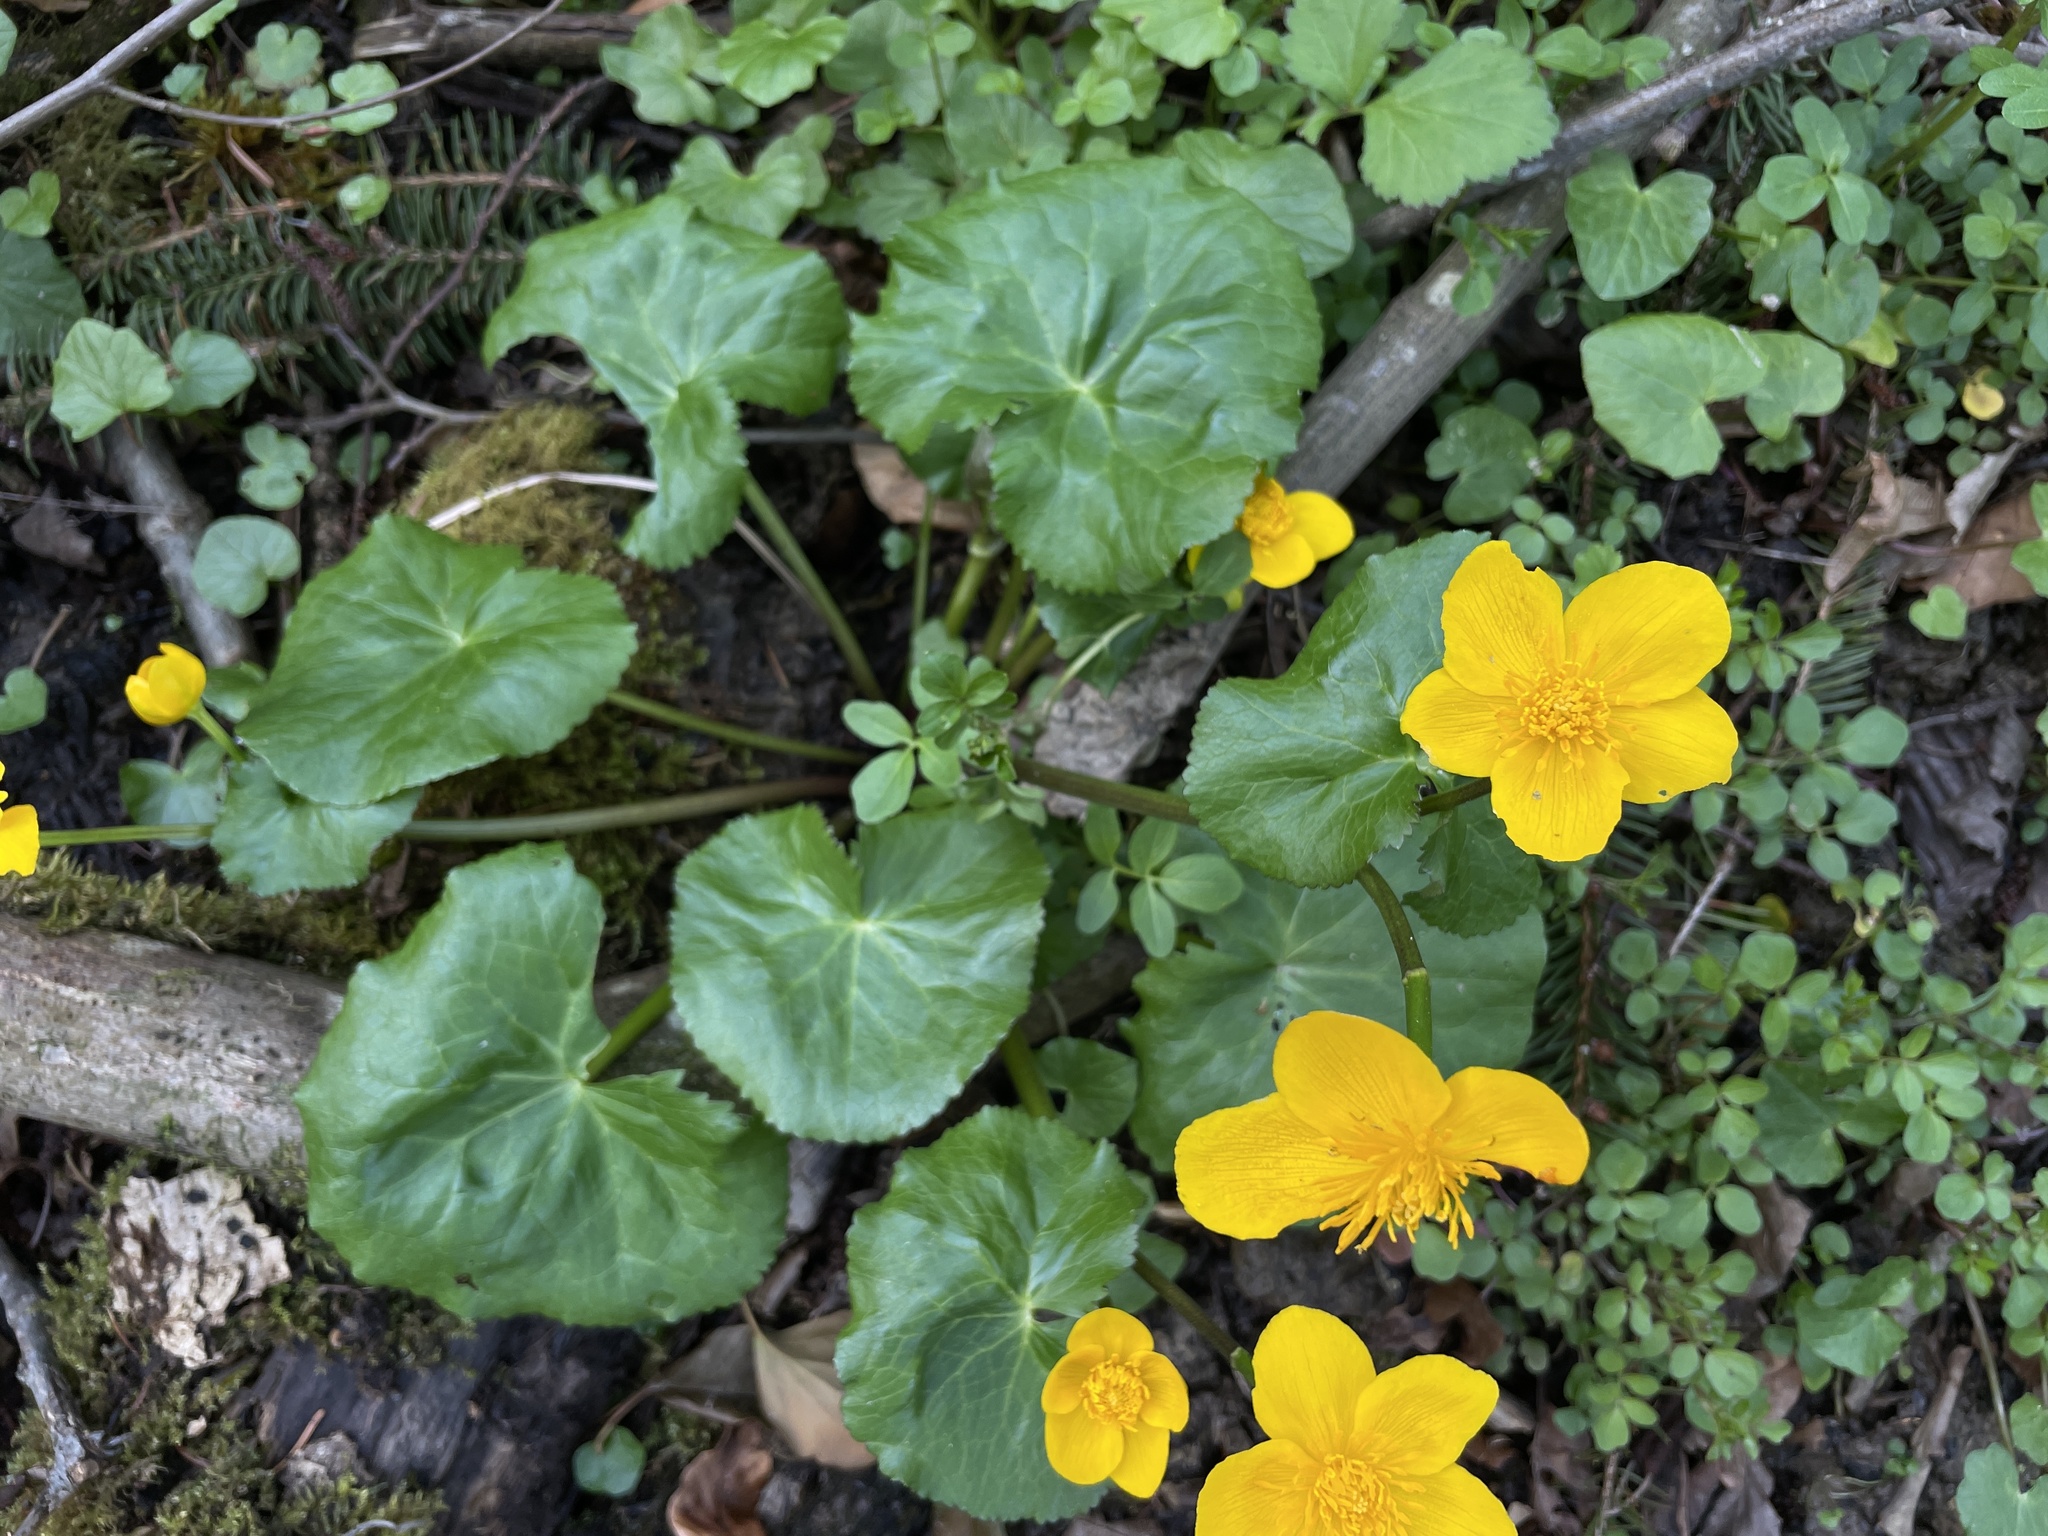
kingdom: Plantae
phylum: Tracheophyta
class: Magnoliopsida
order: Ranunculales
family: Ranunculaceae
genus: Caltha
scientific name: Caltha palustris
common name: Marsh marigold
